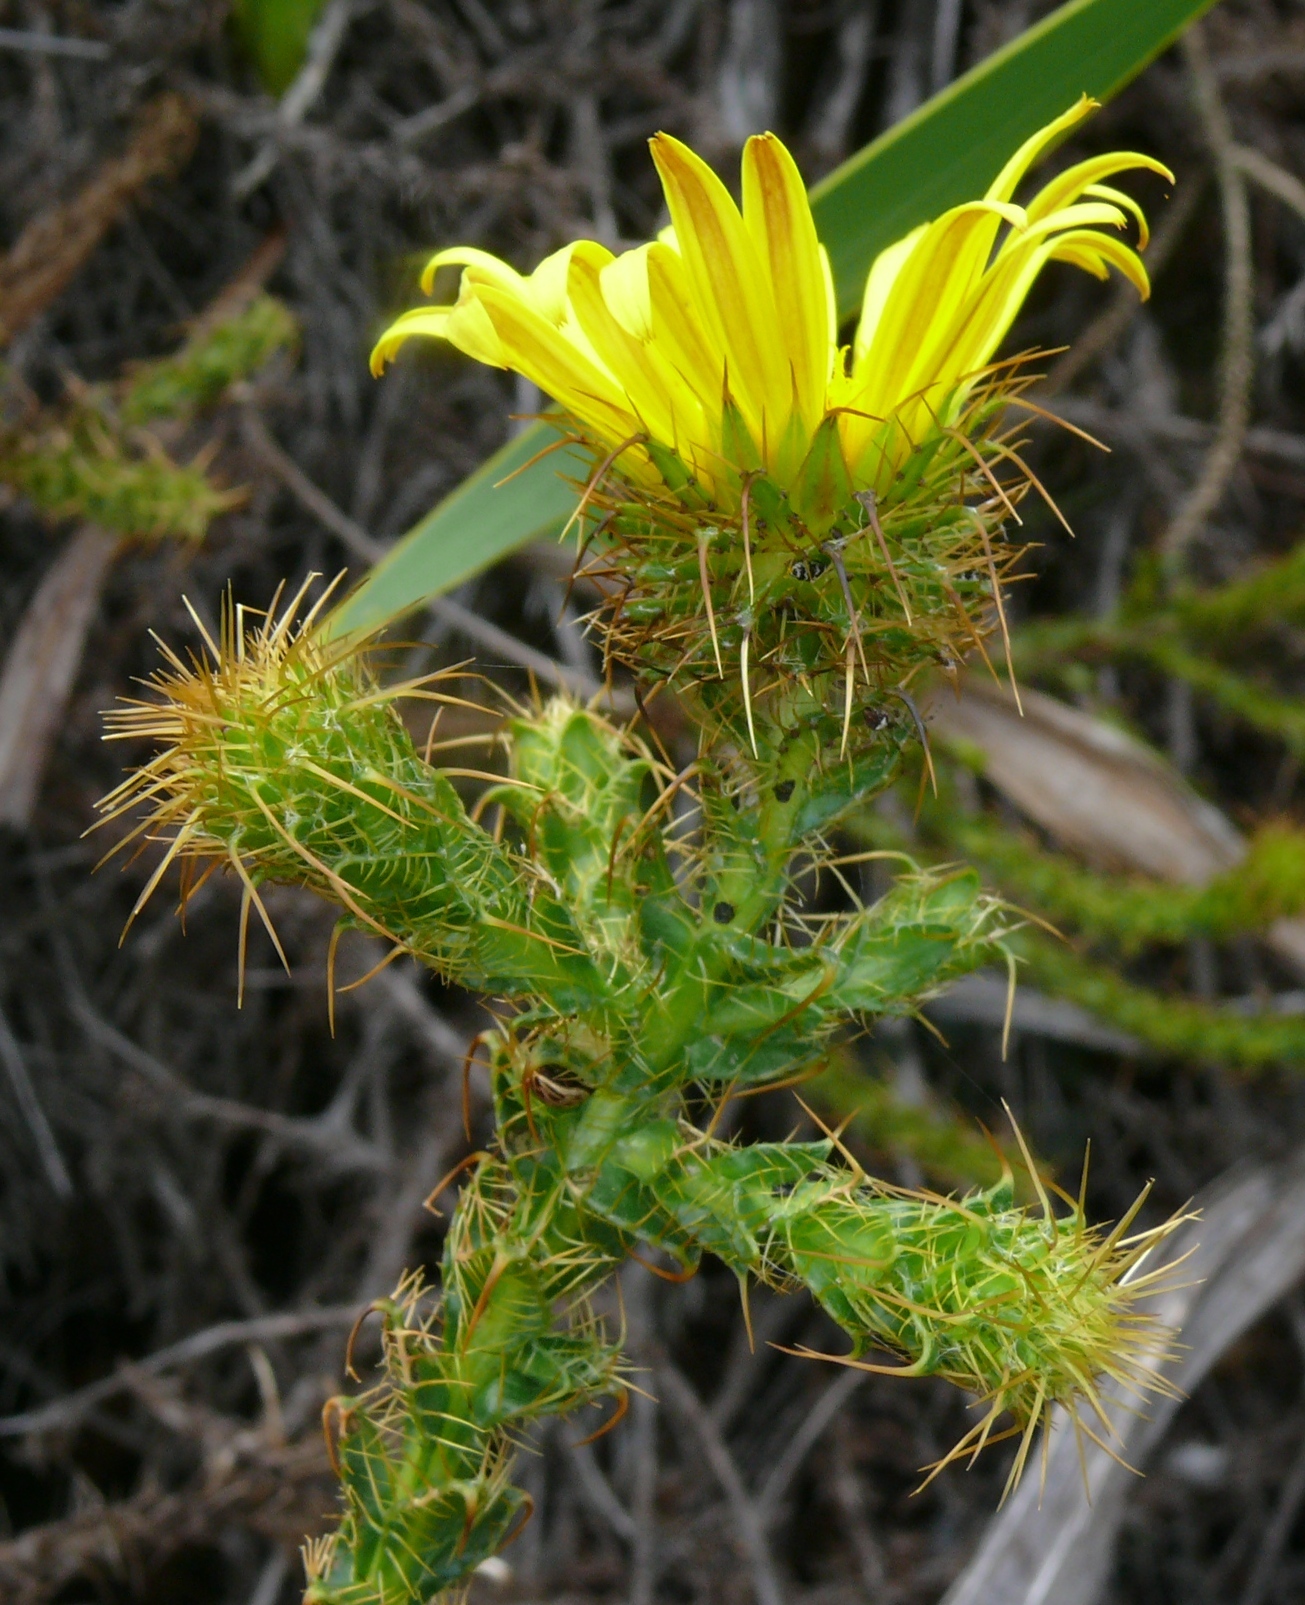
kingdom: Plantae
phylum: Tracheophyta
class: Magnoliopsida
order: Asterales
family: Asteraceae
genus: Cullumia
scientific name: Cullumia ciliaris
